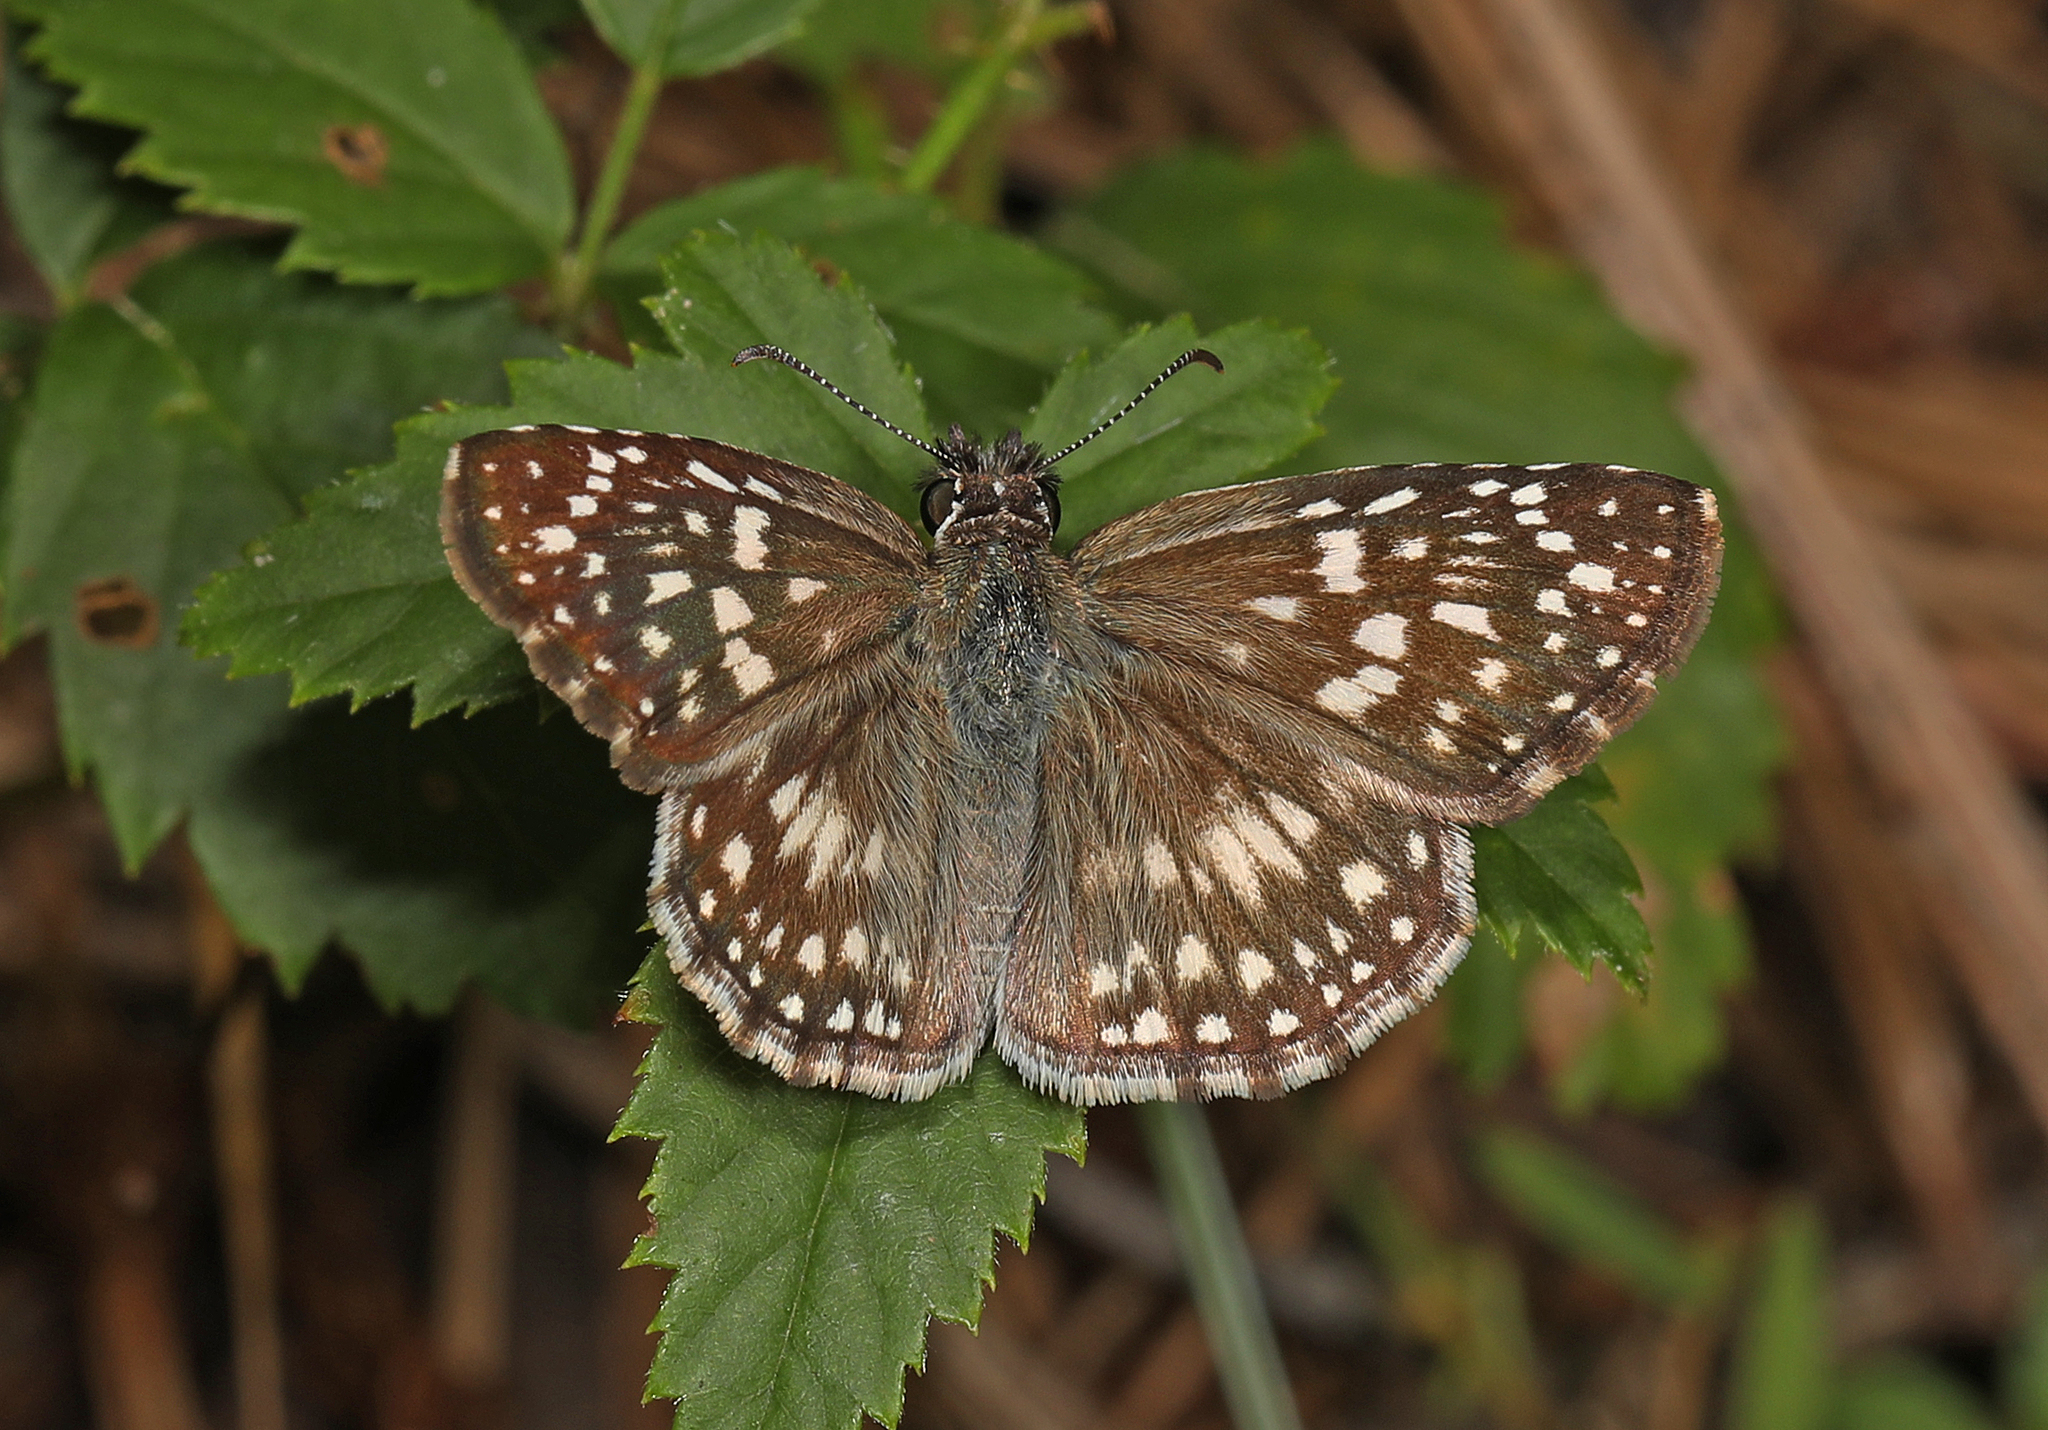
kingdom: Animalia
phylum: Arthropoda
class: Insecta
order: Lepidoptera
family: Hesperiidae
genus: Pyrgus
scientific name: Pyrgus oileus
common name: Tropical checkered-skipper
